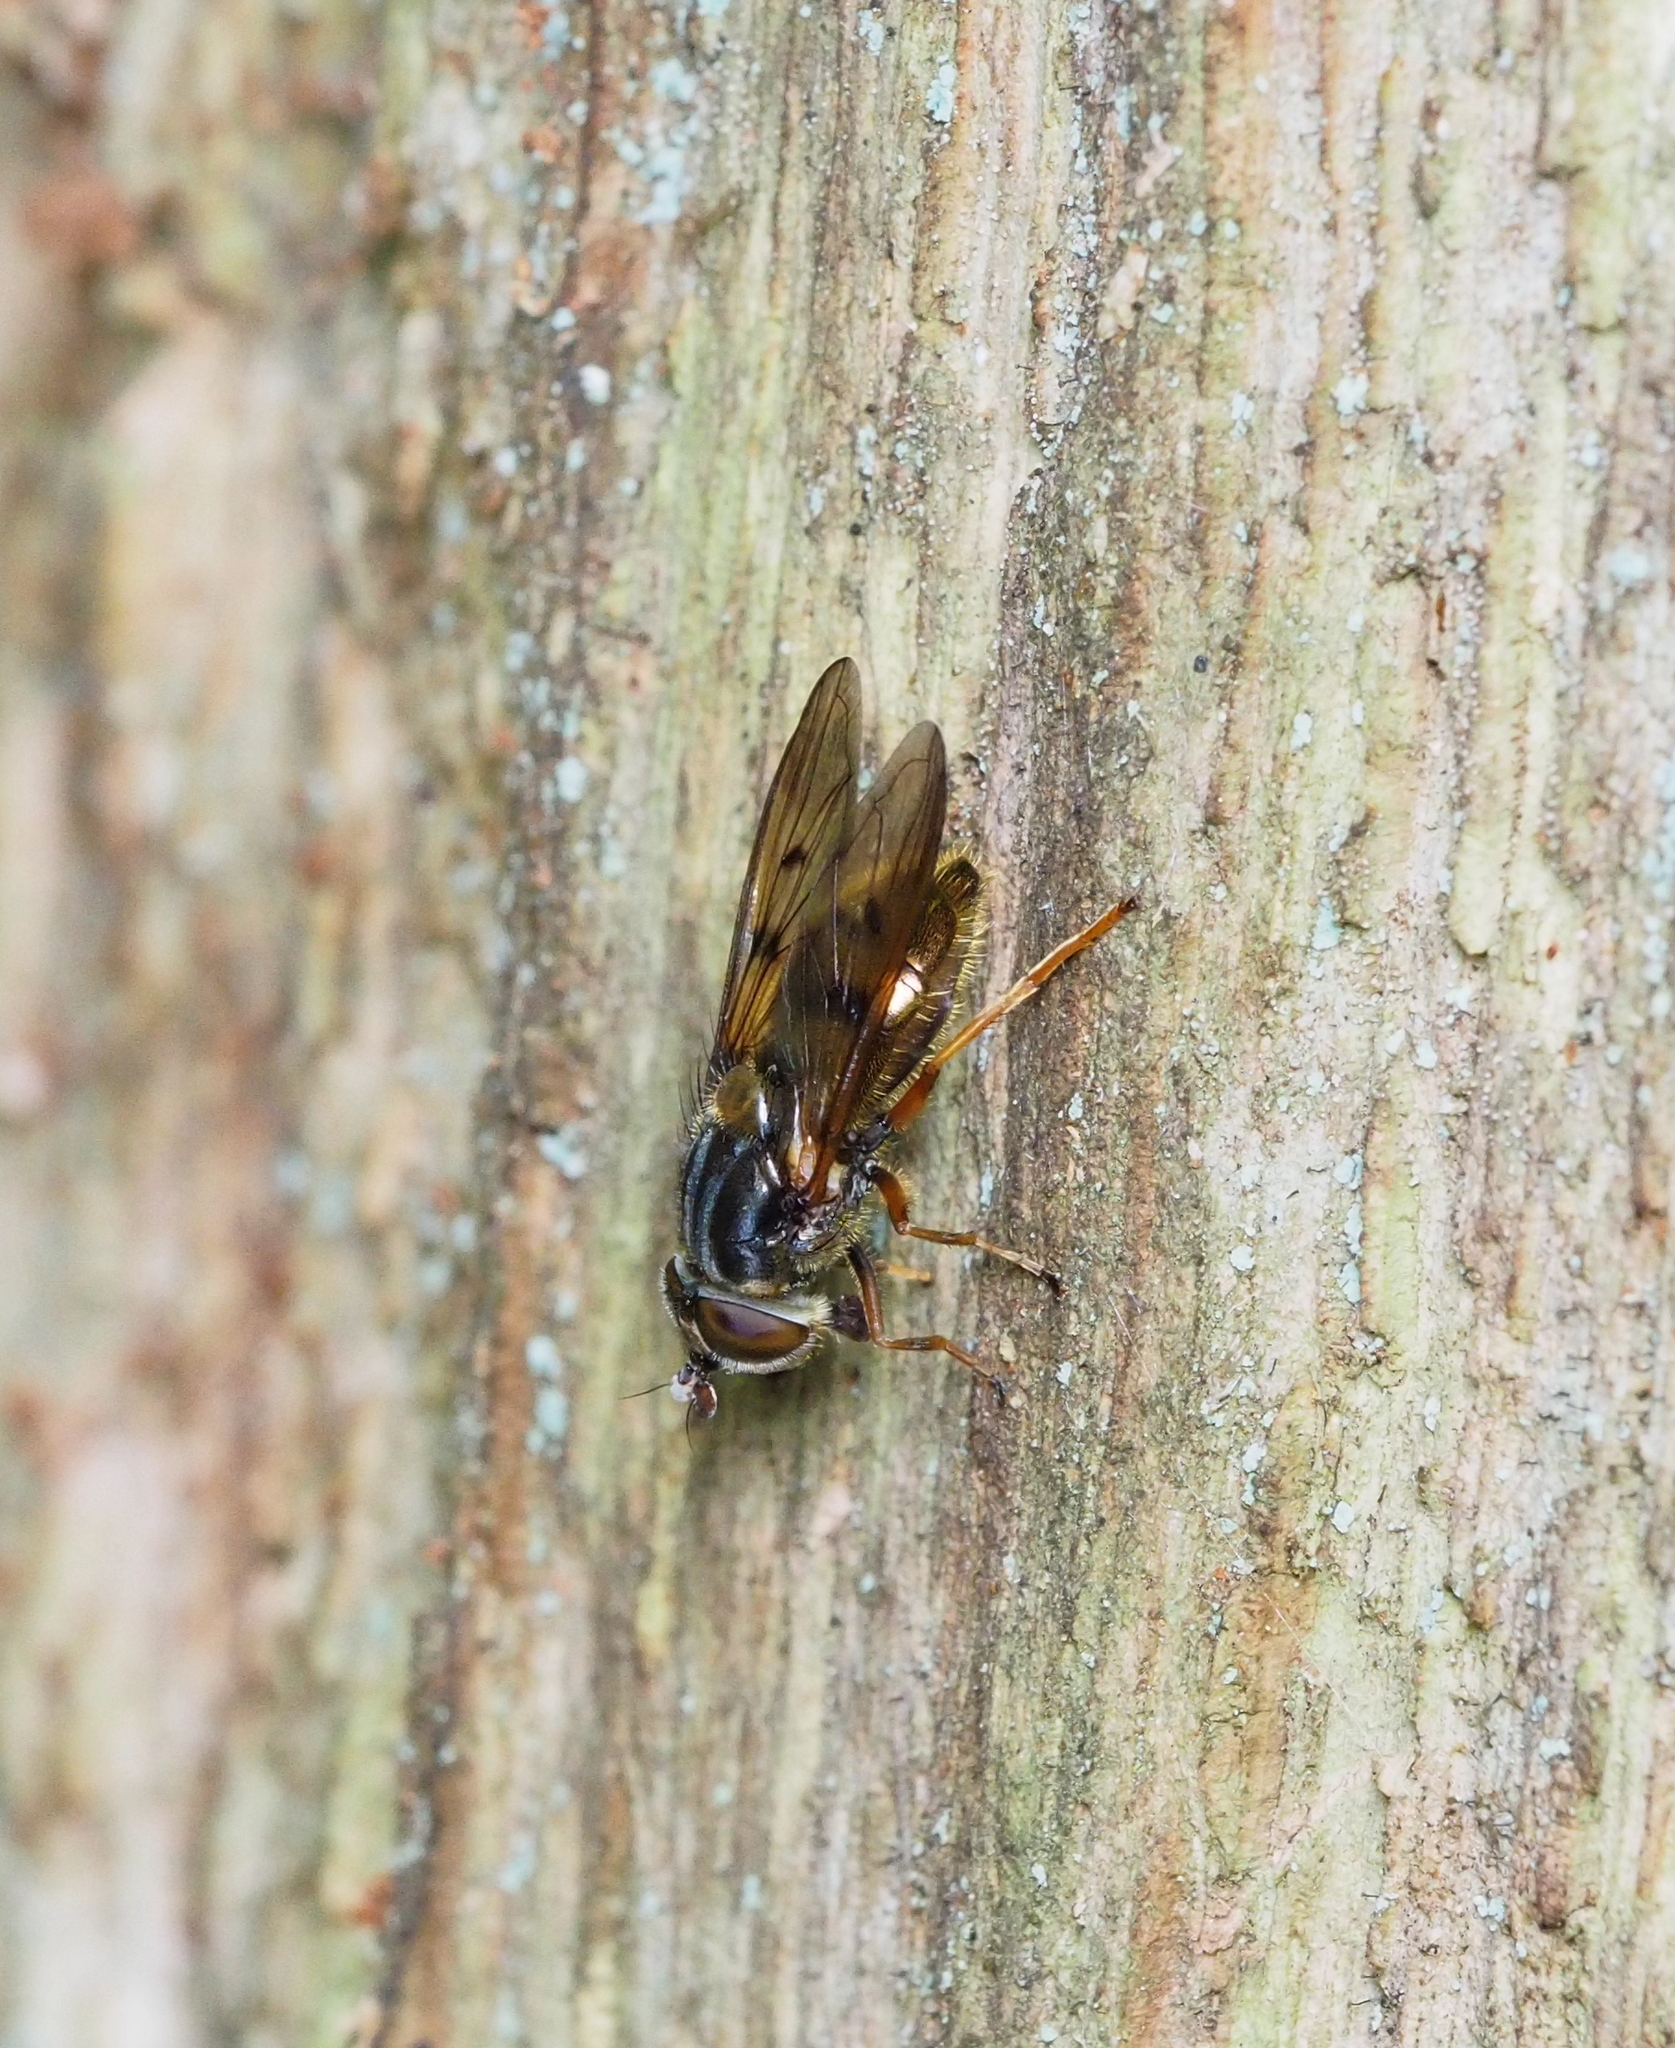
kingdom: Animalia
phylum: Arthropoda
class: Insecta
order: Diptera
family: Syrphidae
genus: Ferdinandea
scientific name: Ferdinandea cuprea
